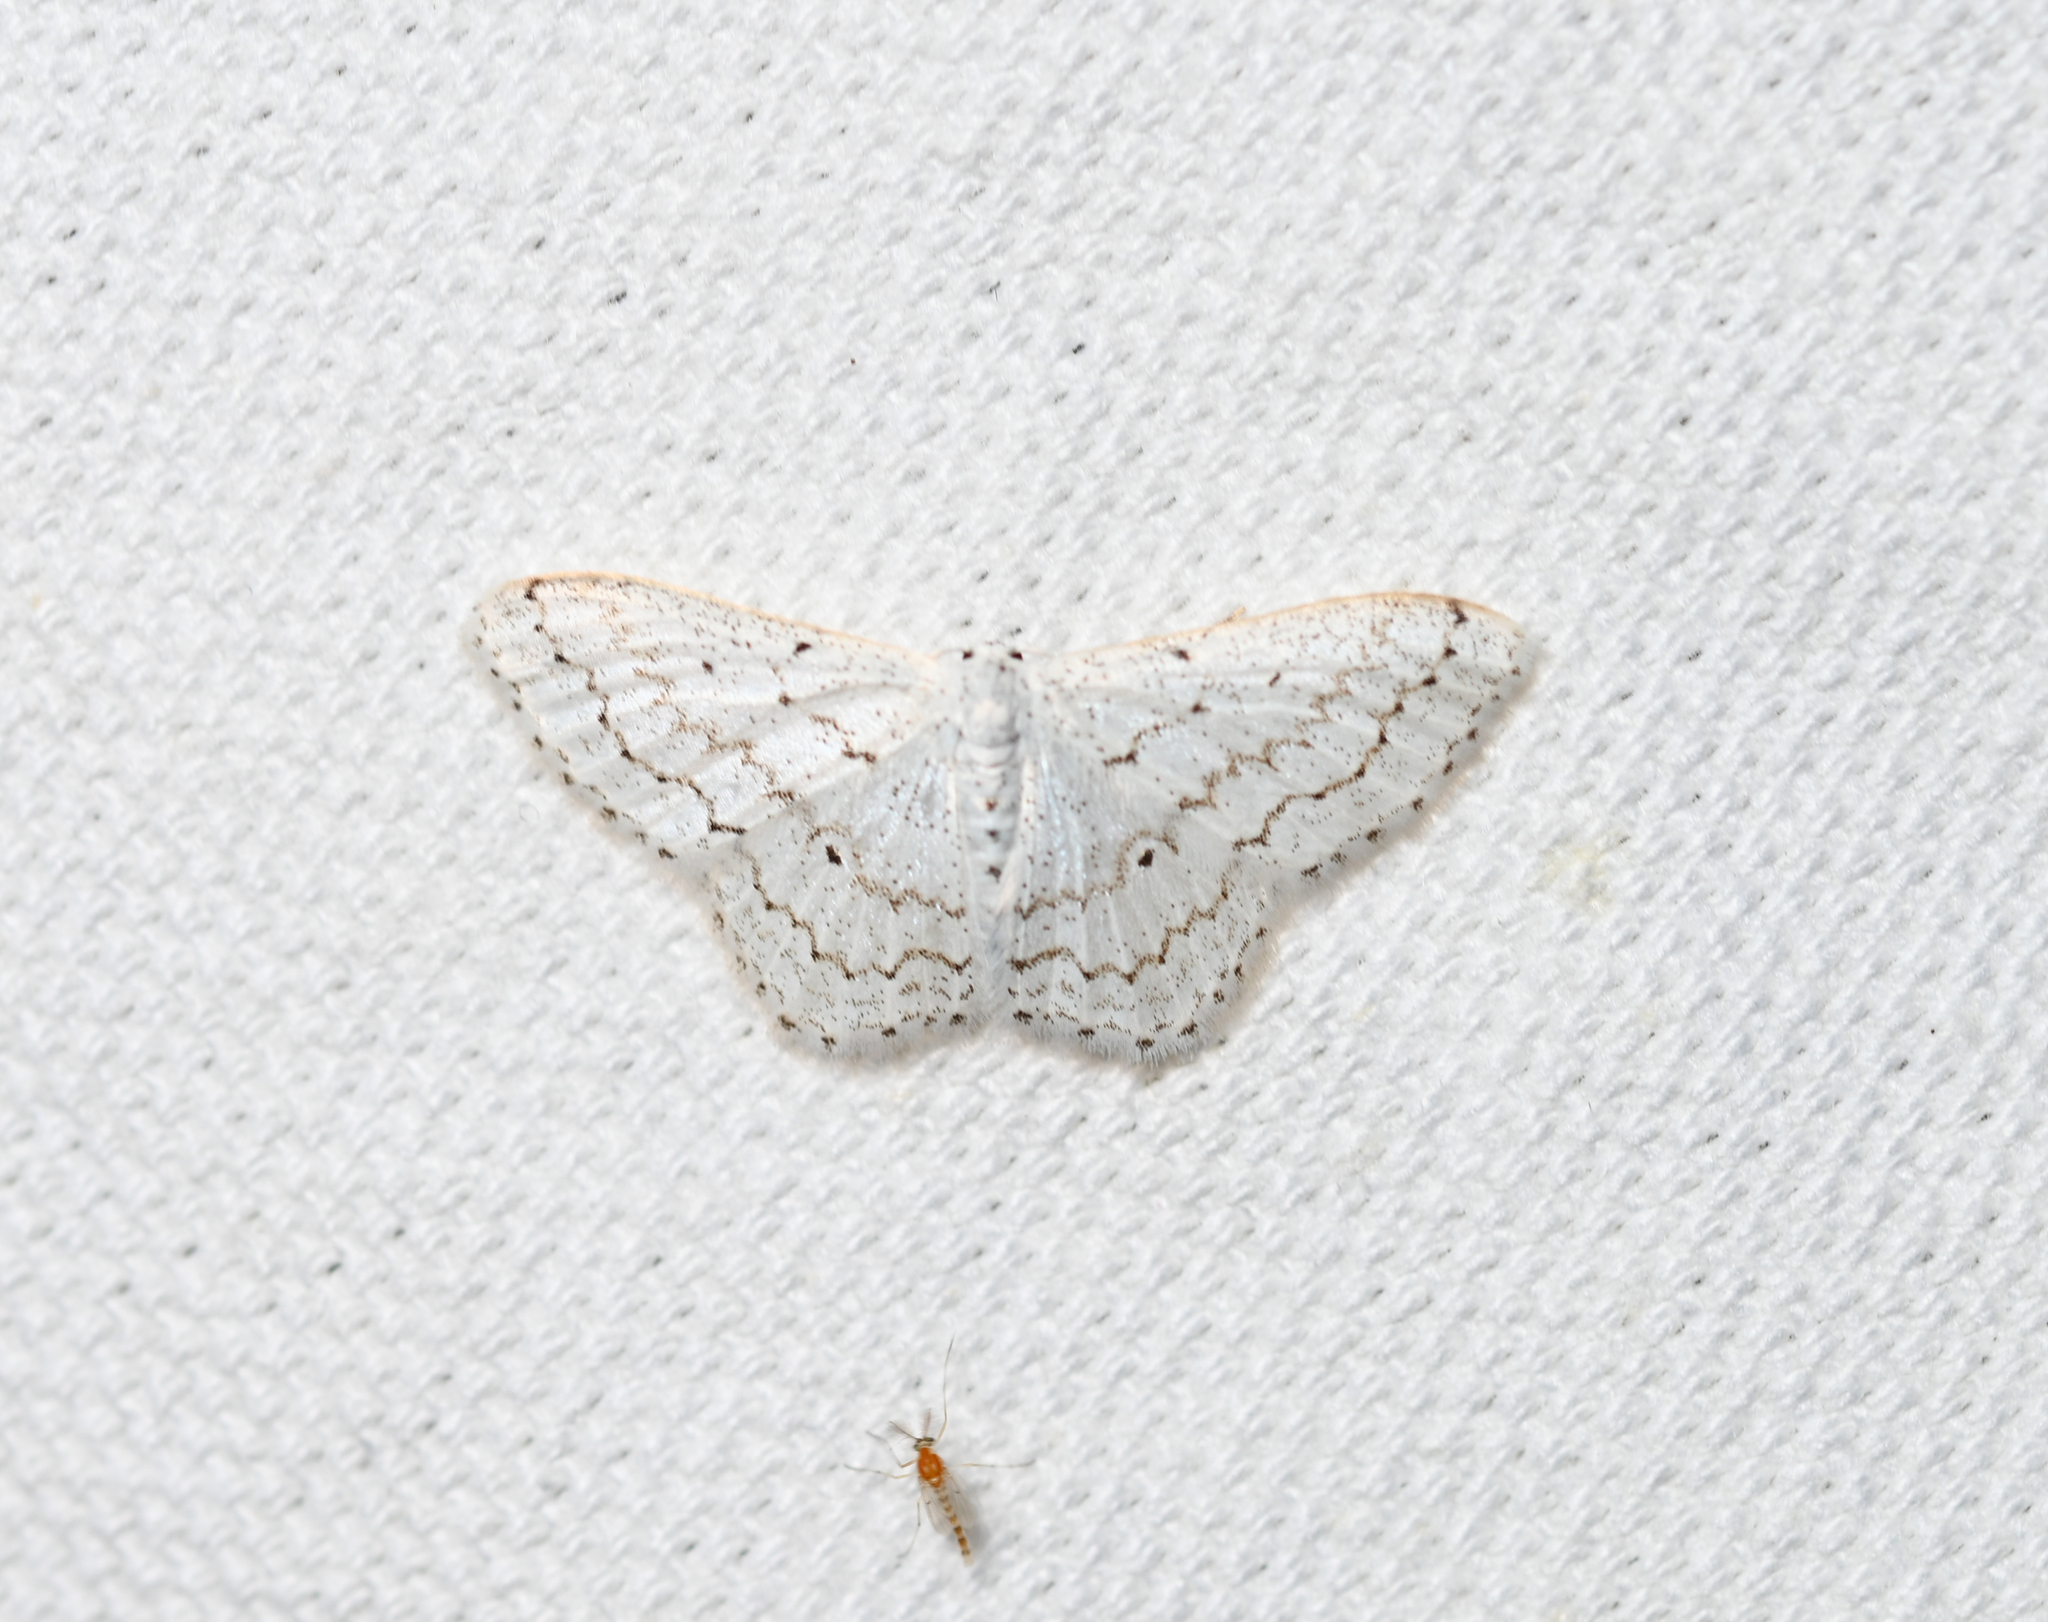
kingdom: Animalia
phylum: Arthropoda
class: Insecta
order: Lepidoptera
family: Geometridae
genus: Idaea
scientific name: Idaea tacturata
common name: Dot-lined wave
